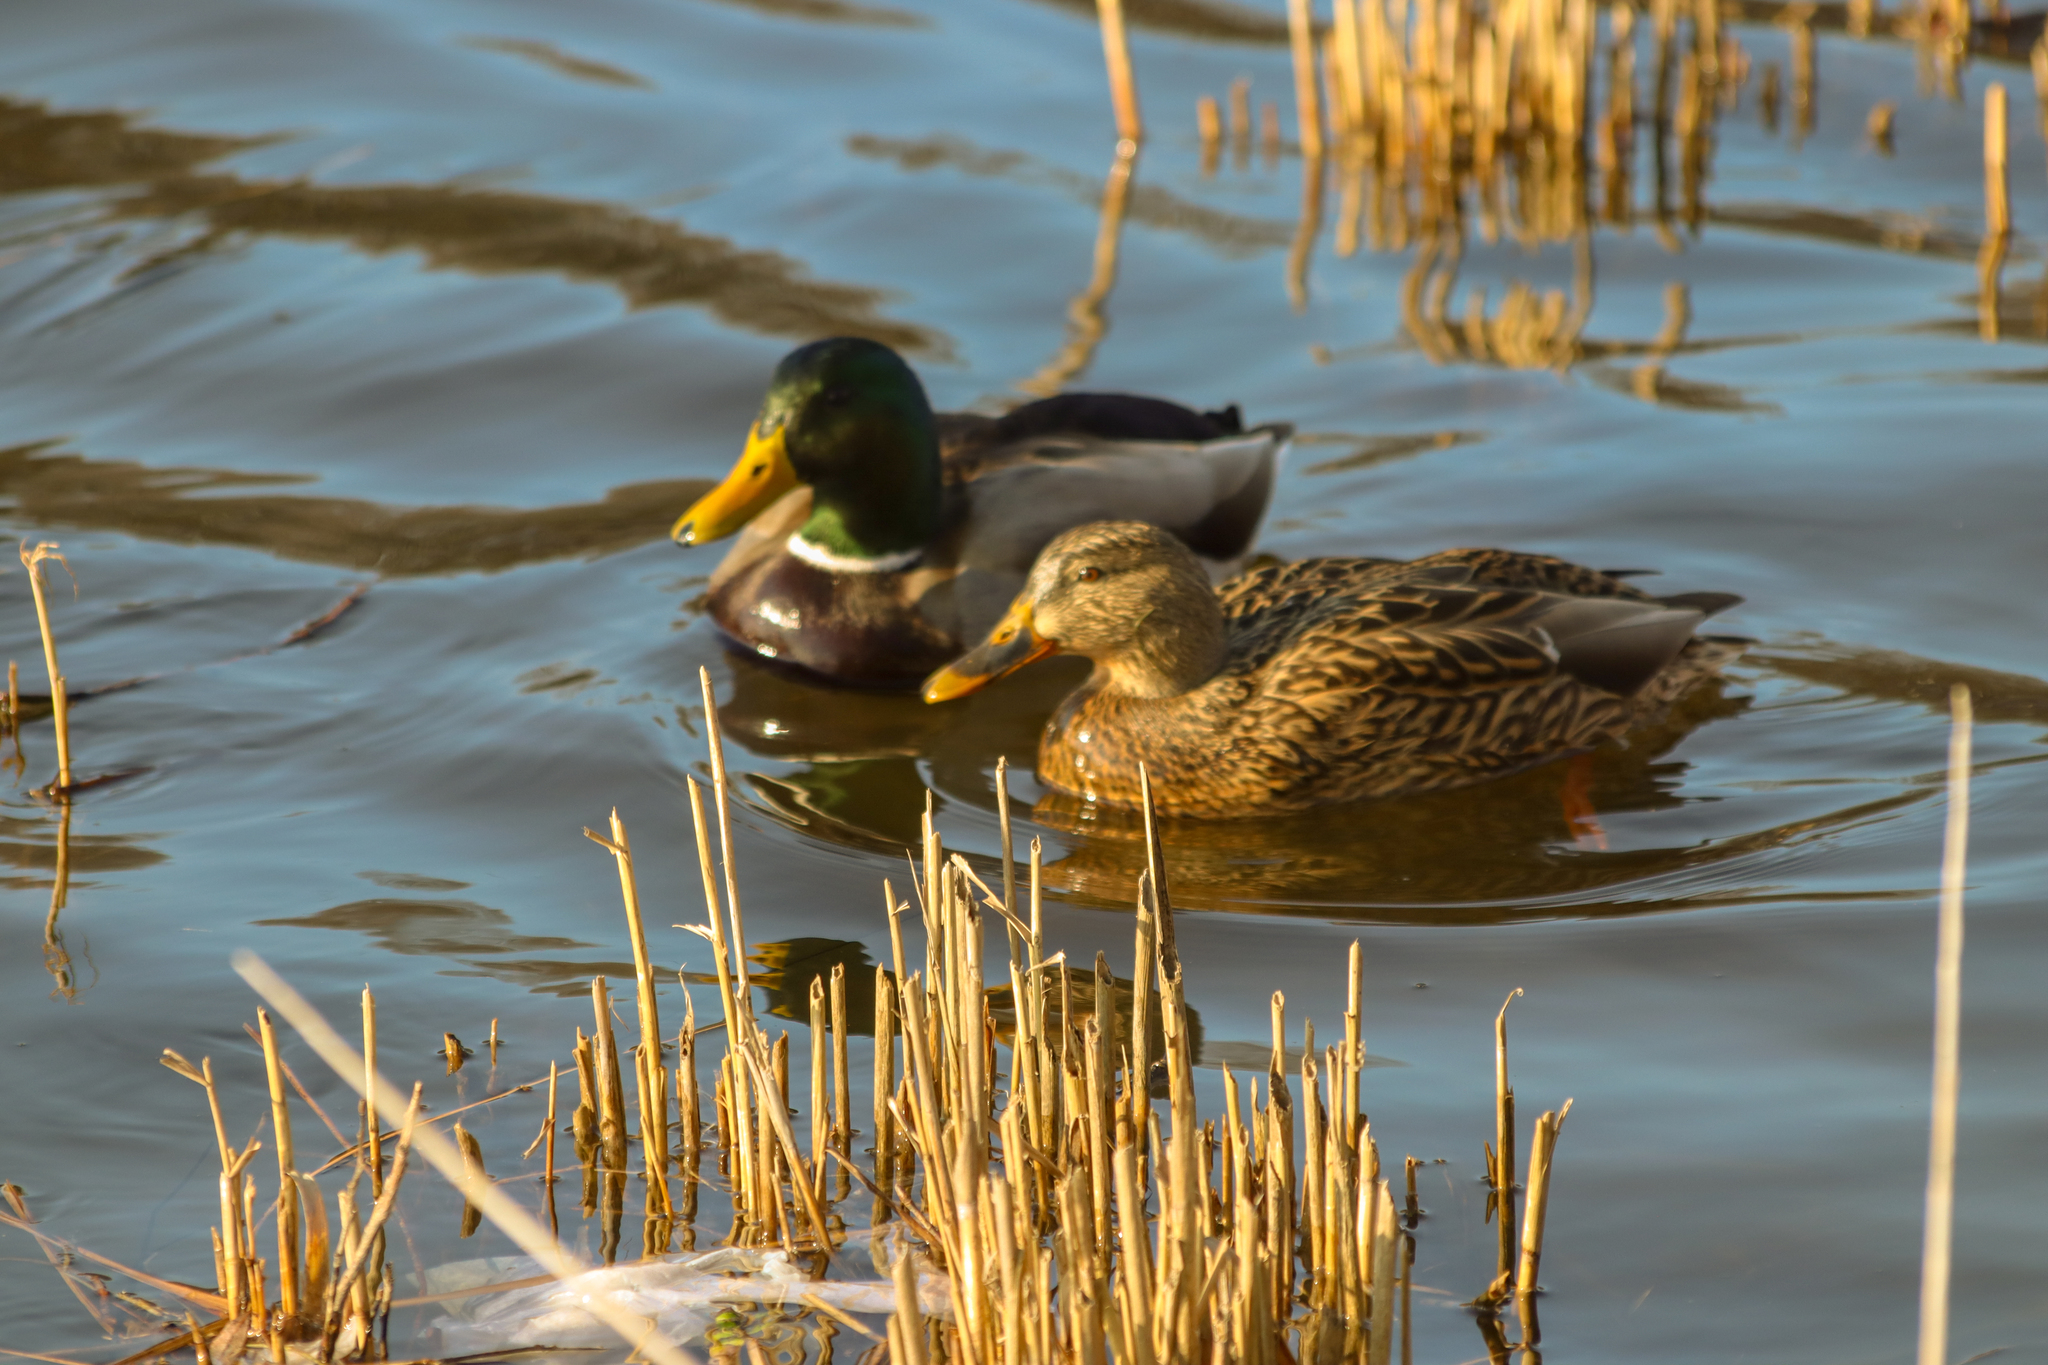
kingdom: Animalia
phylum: Chordata
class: Aves
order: Anseriformes
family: Anatidae
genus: Anas
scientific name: Anas platyrhynchos
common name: Mallard
